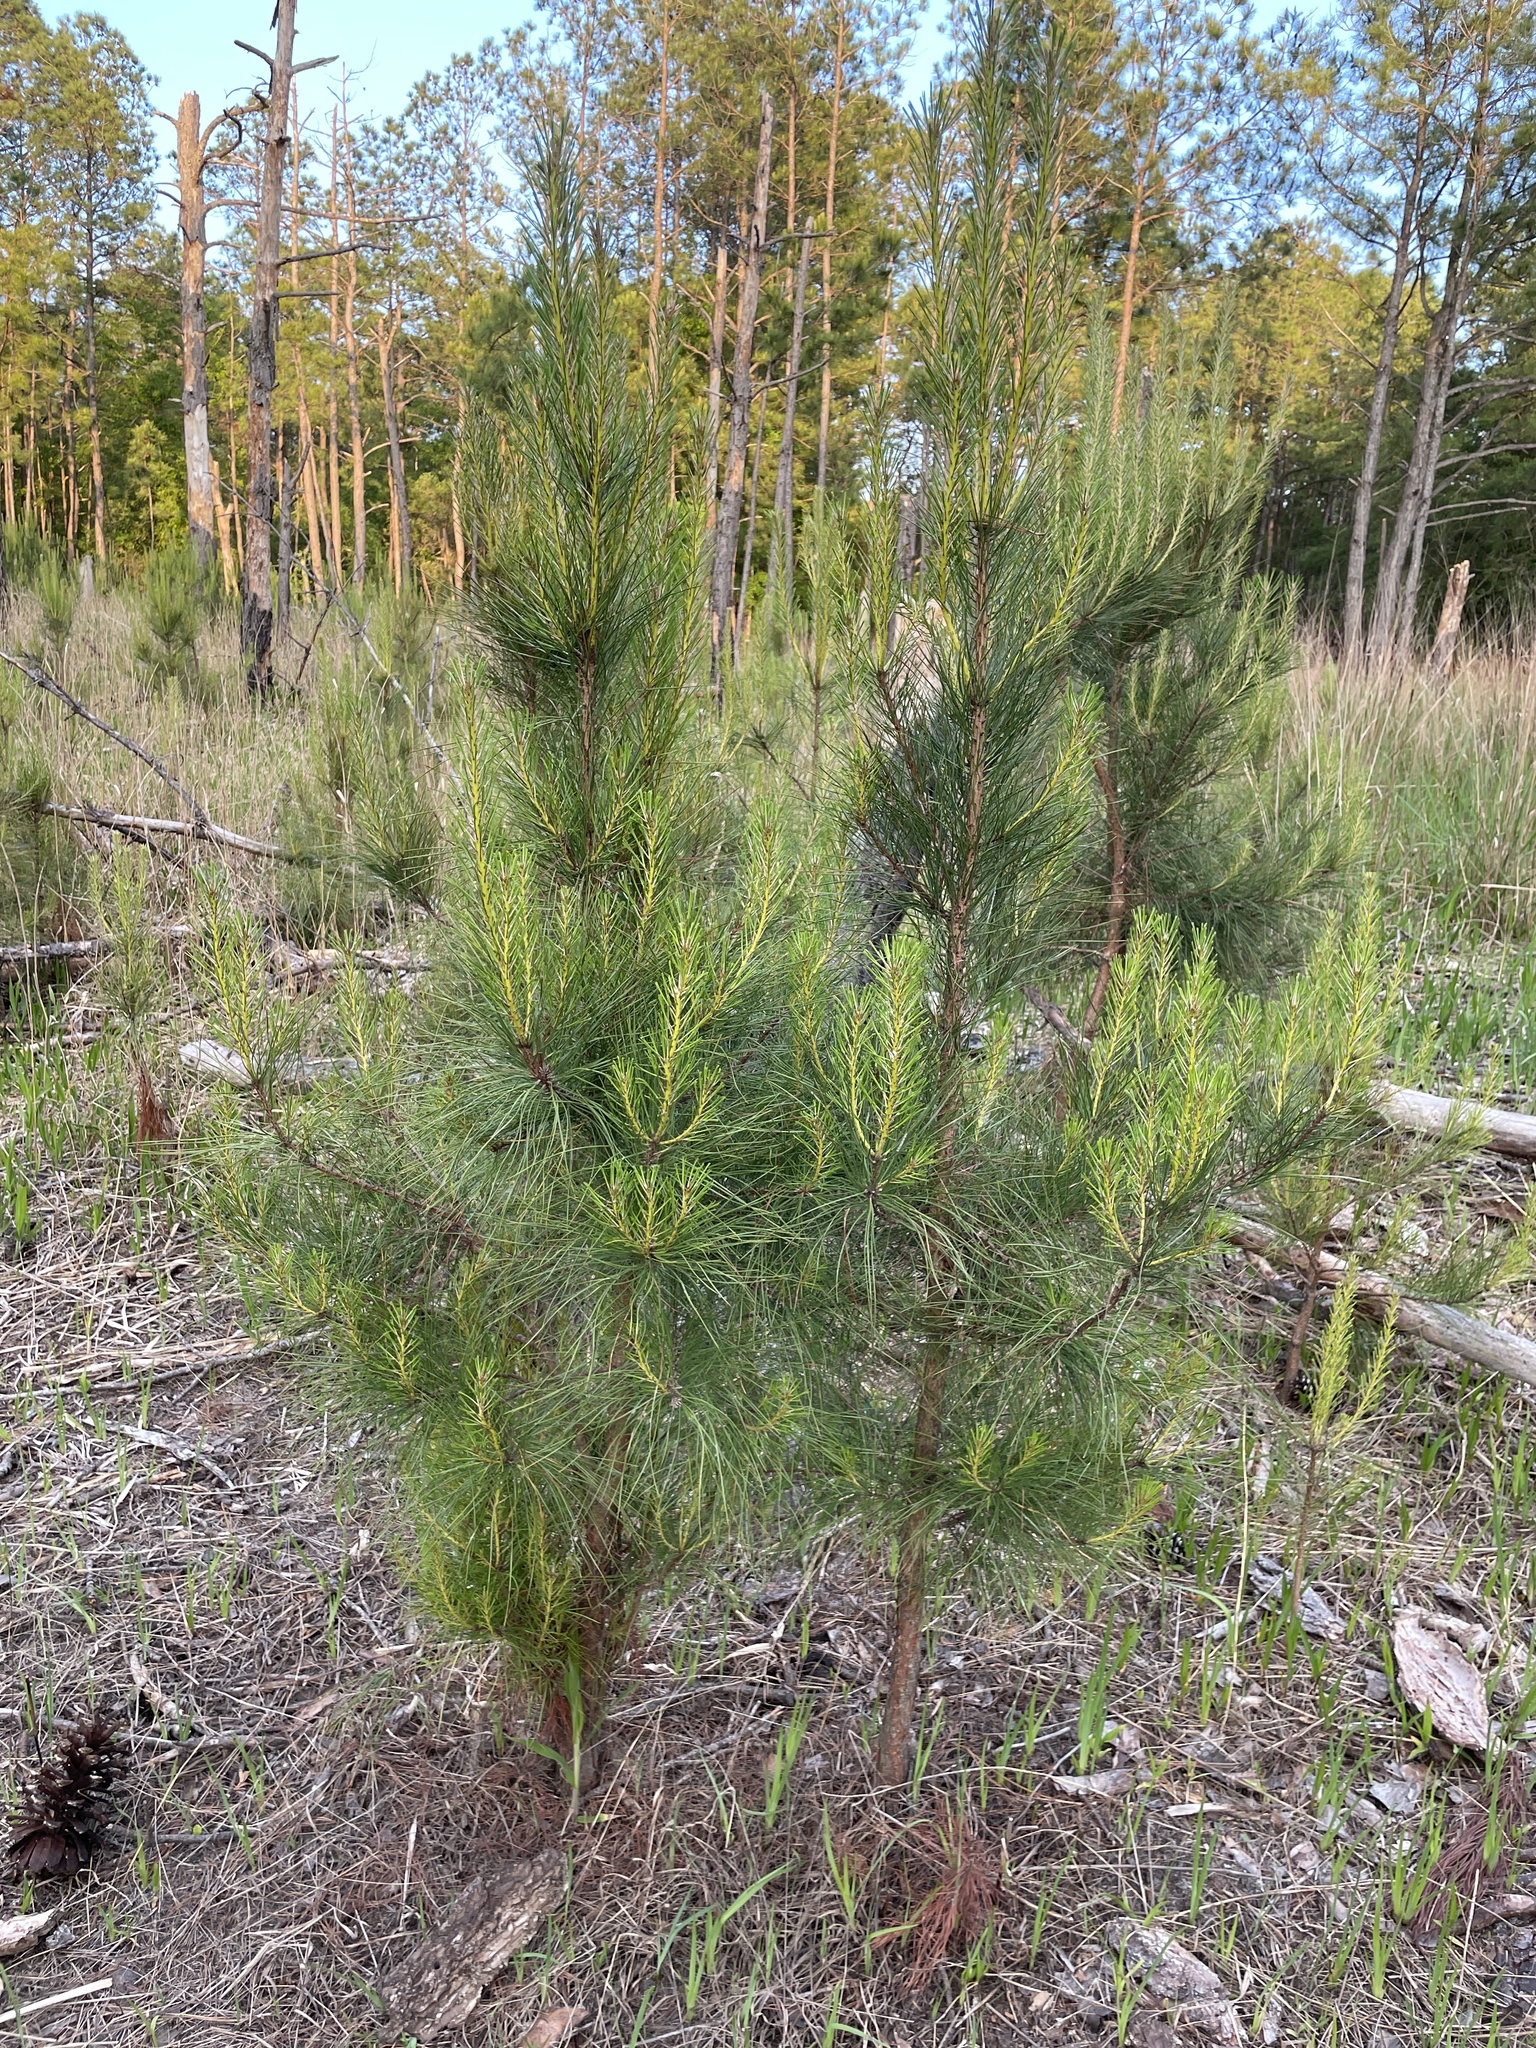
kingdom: Plantae
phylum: Tracheophyta
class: Pinopsida
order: Pinales
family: Pinaceae
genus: Pinus
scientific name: Pinus taeda
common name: Loblolly pine
